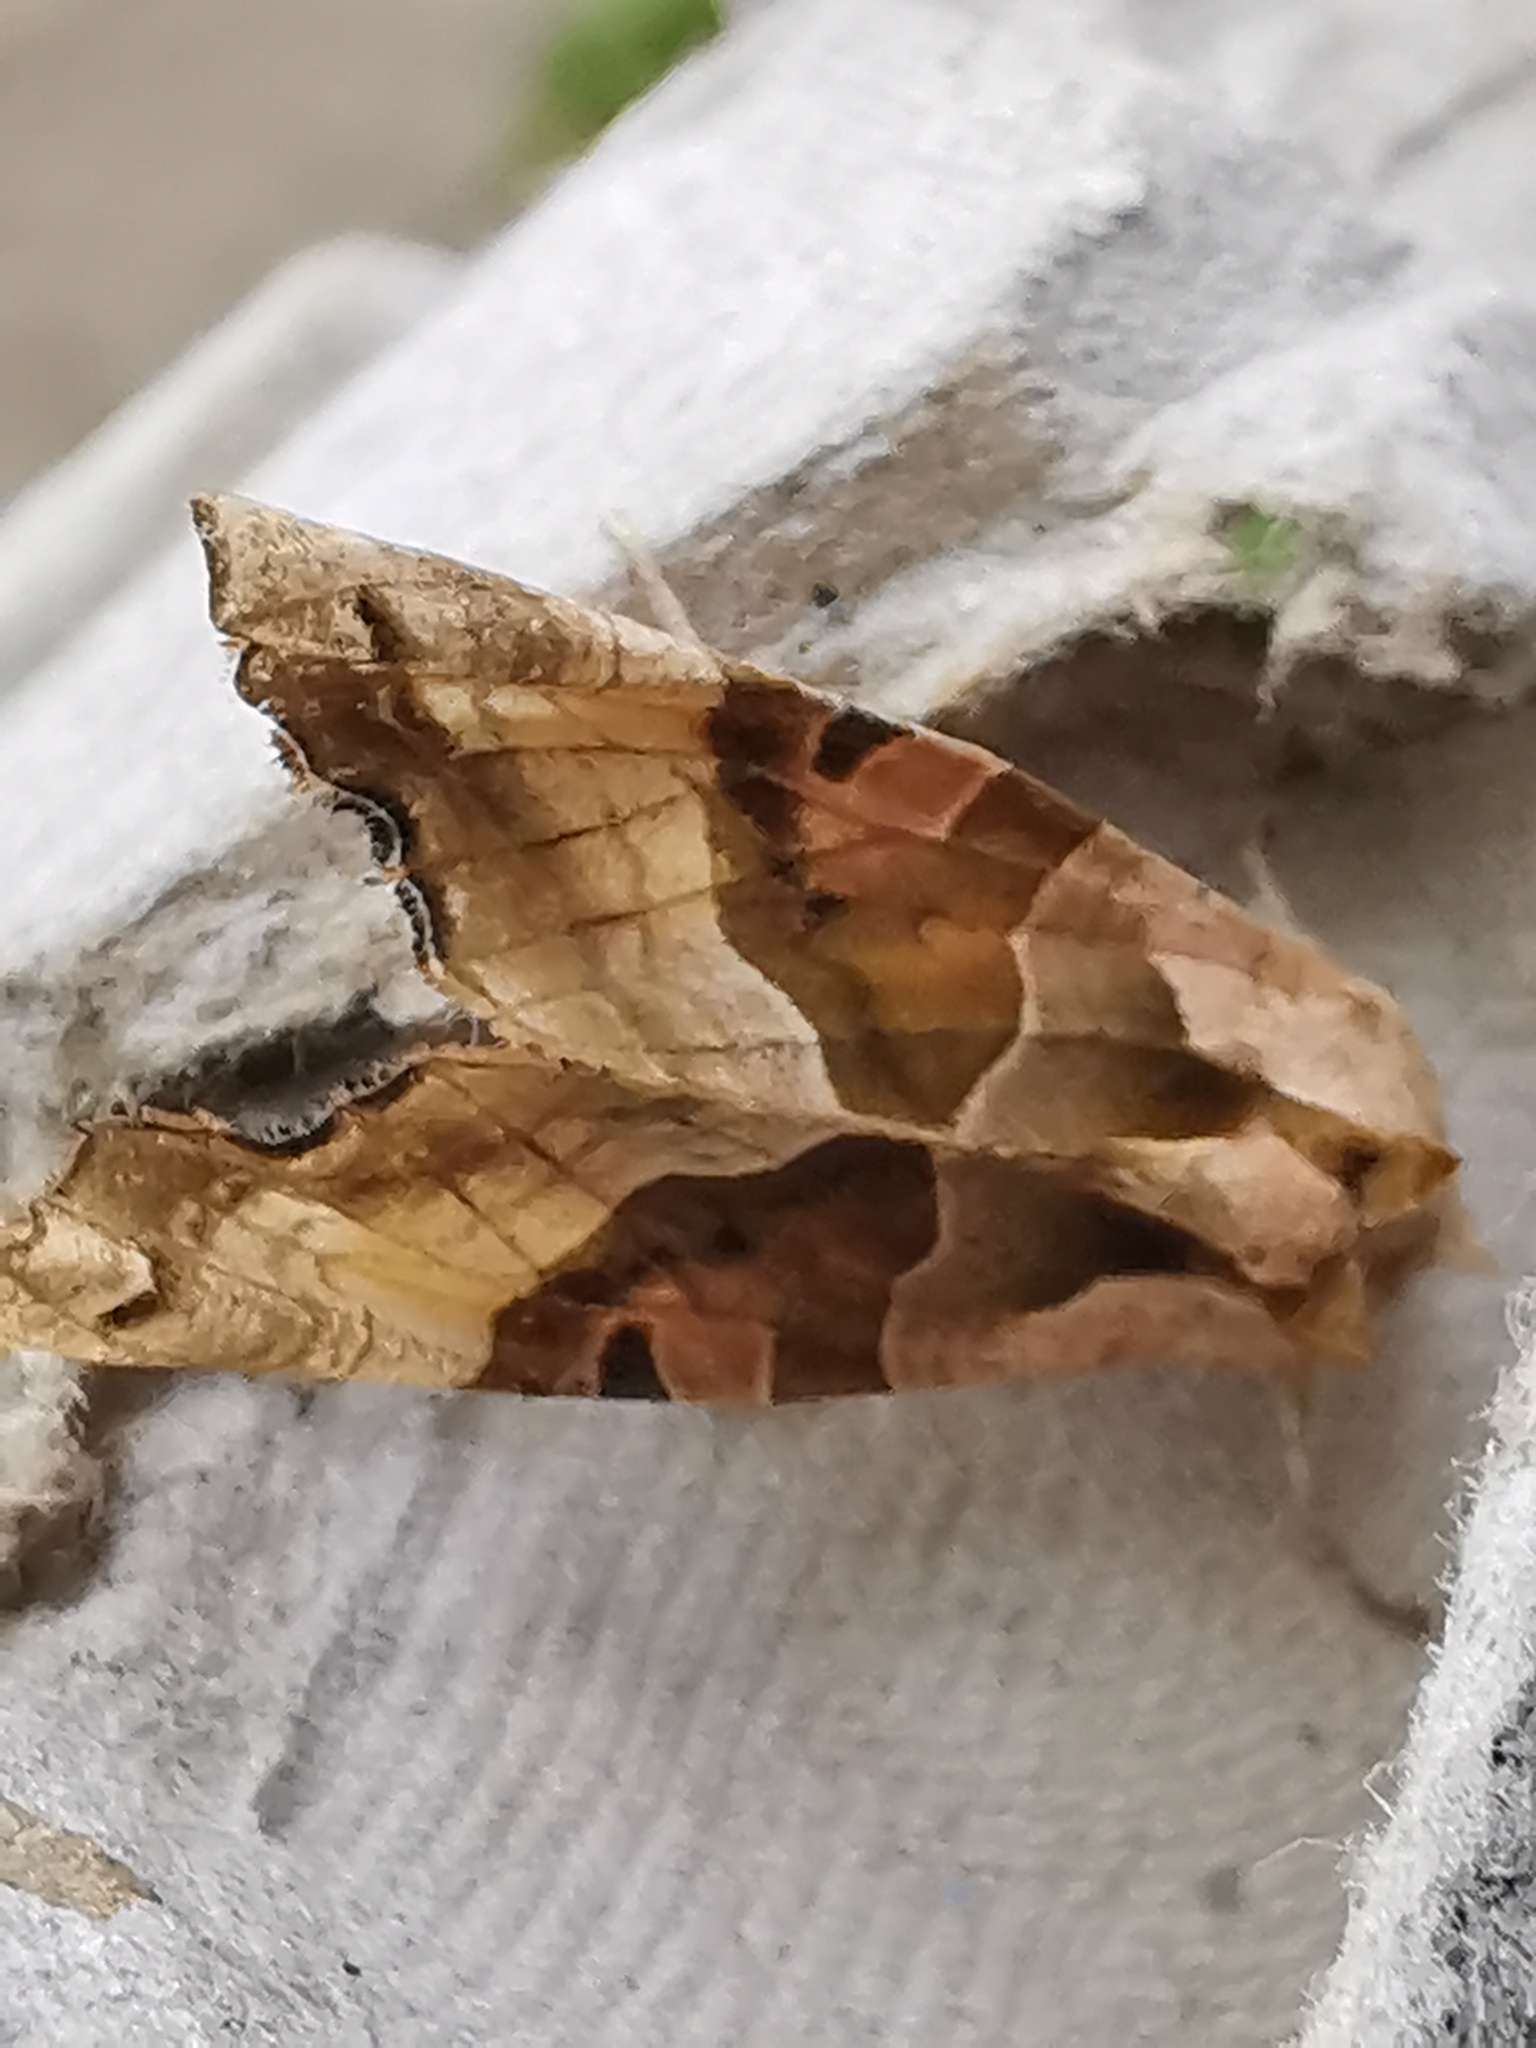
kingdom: Animalia
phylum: Arthropoda
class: Insecta
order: Lepidoptera
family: Noctuidae
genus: Phlogophora
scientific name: Phlogophora meticulosa
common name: Angle shades
